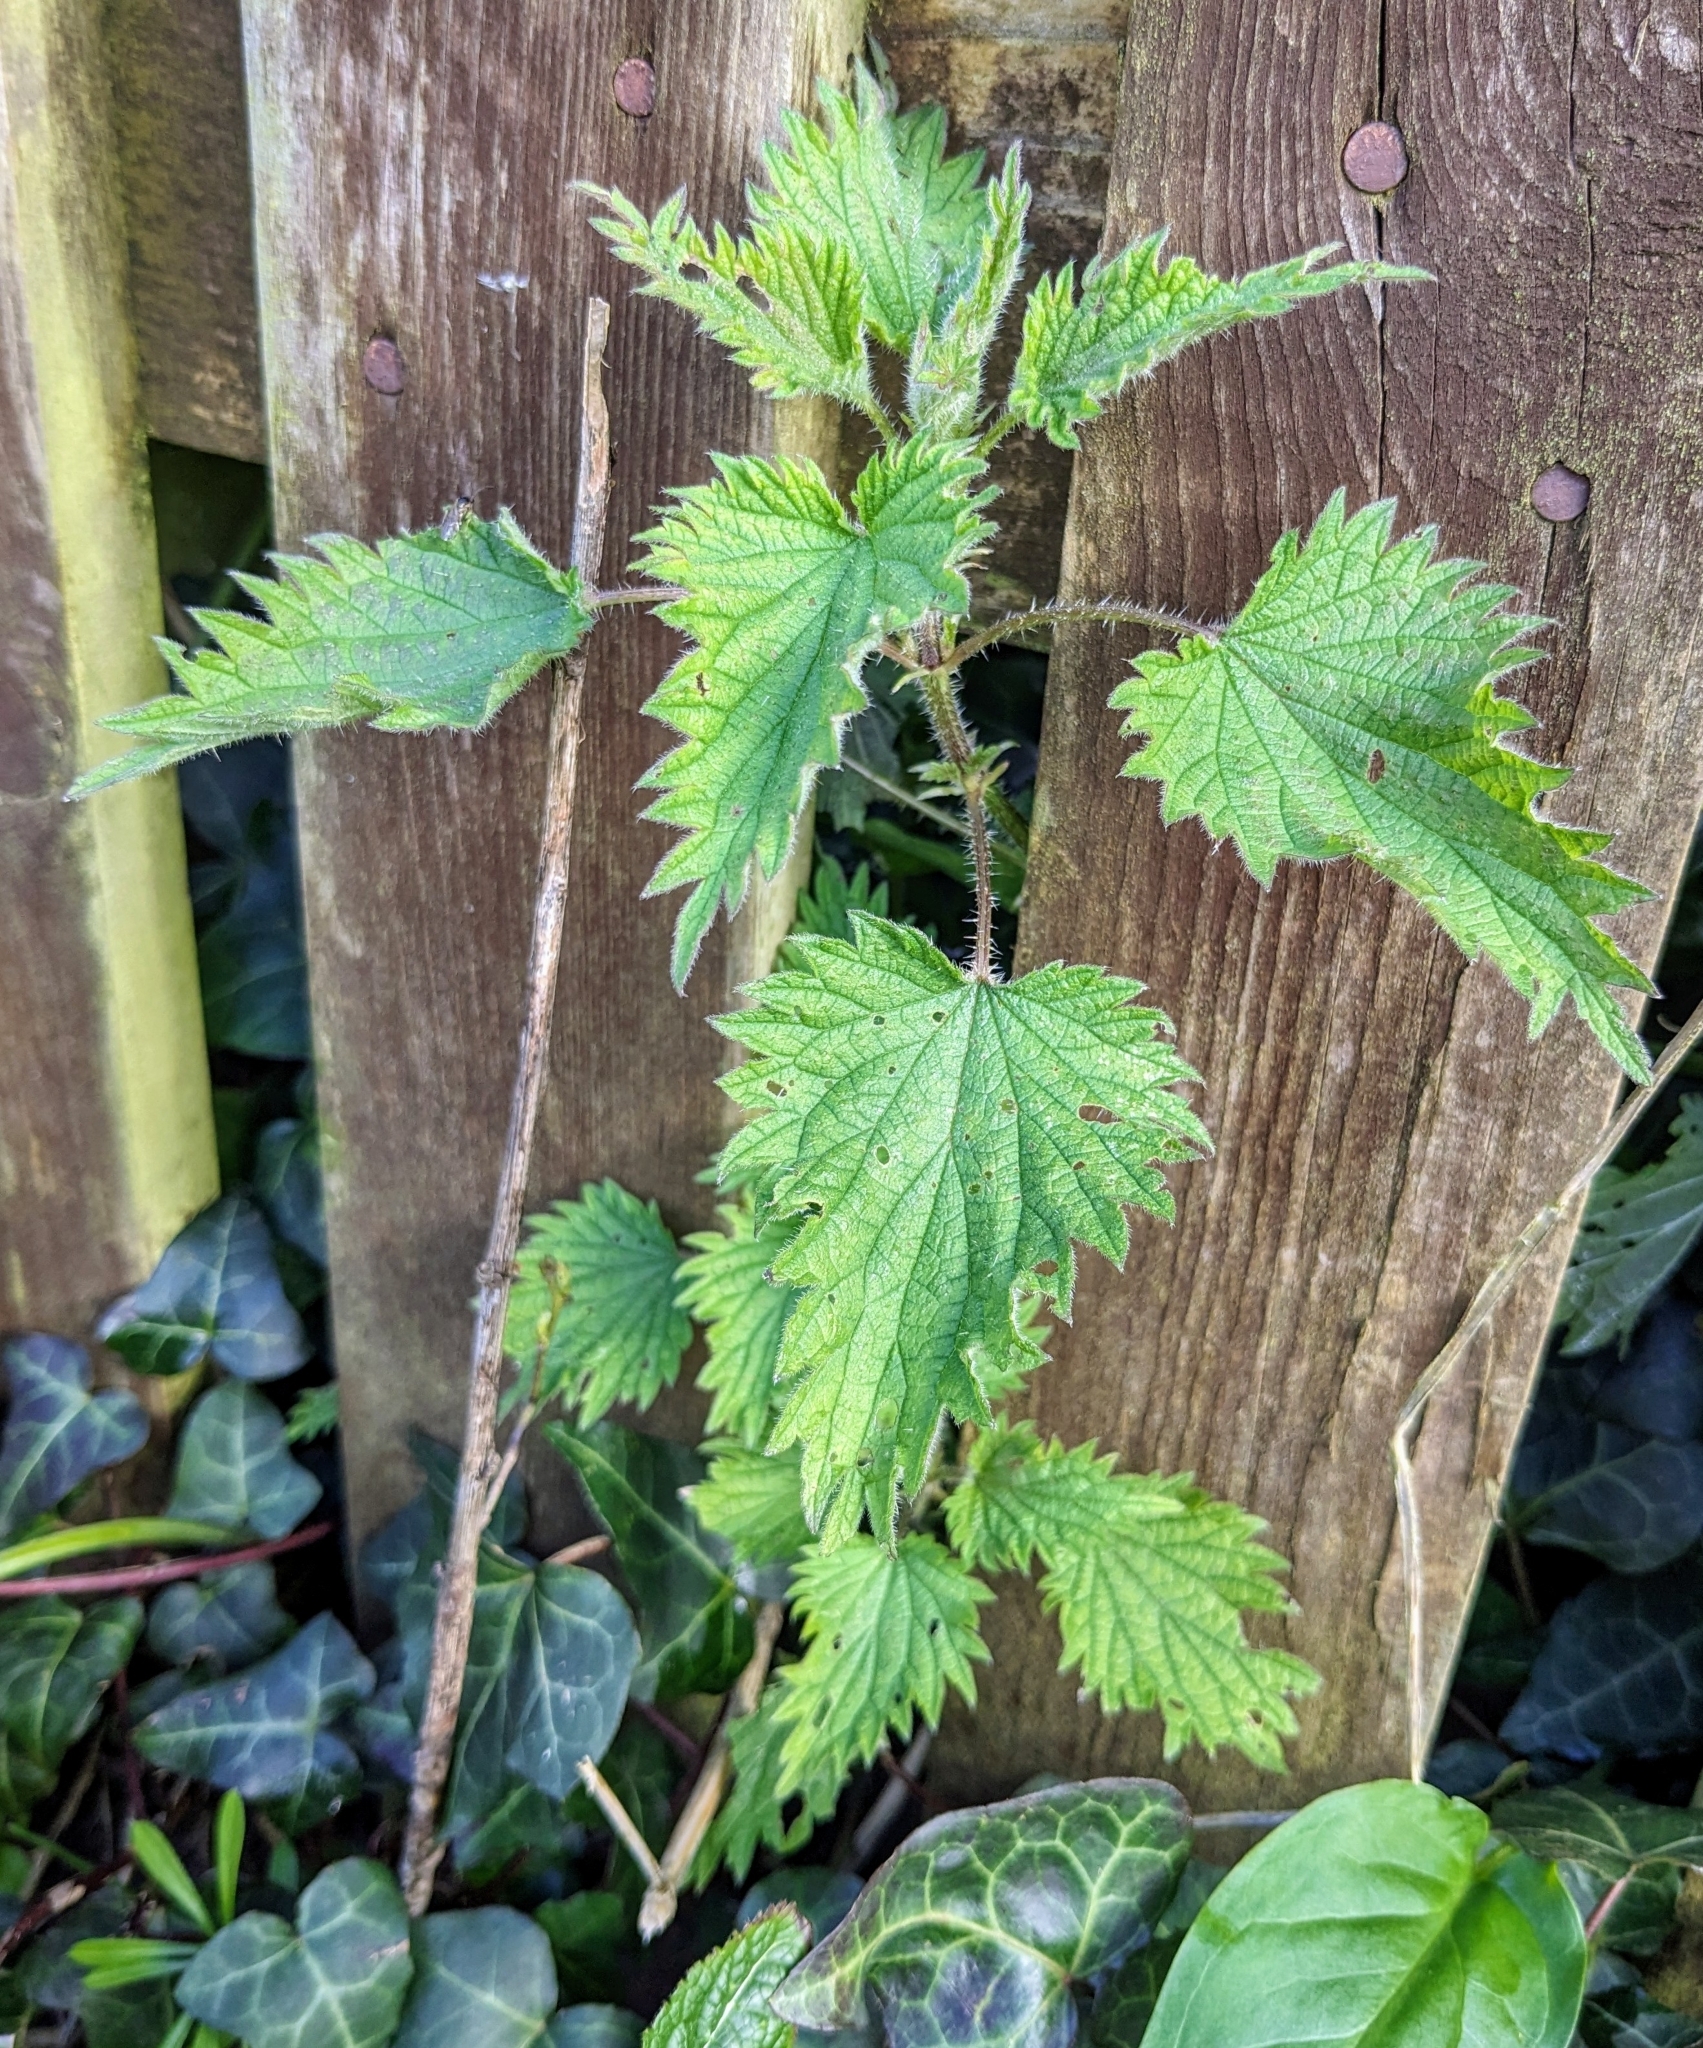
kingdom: Plantae
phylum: Tracheophyta
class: Magnoliopsida
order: Rosales
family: Urticaceae
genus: Urtica
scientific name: Urtica dioica
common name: Common nettle
